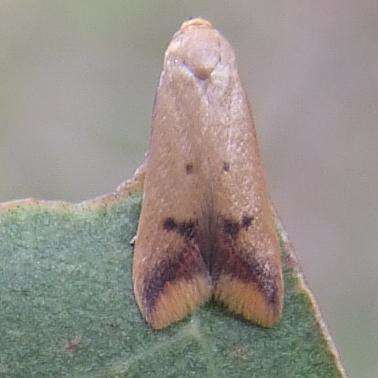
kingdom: Animalia
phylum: Arthropoda
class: Insecta
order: Lepidoptera
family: Oecophoridae
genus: Tachystola
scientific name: Tachystola hemisema
